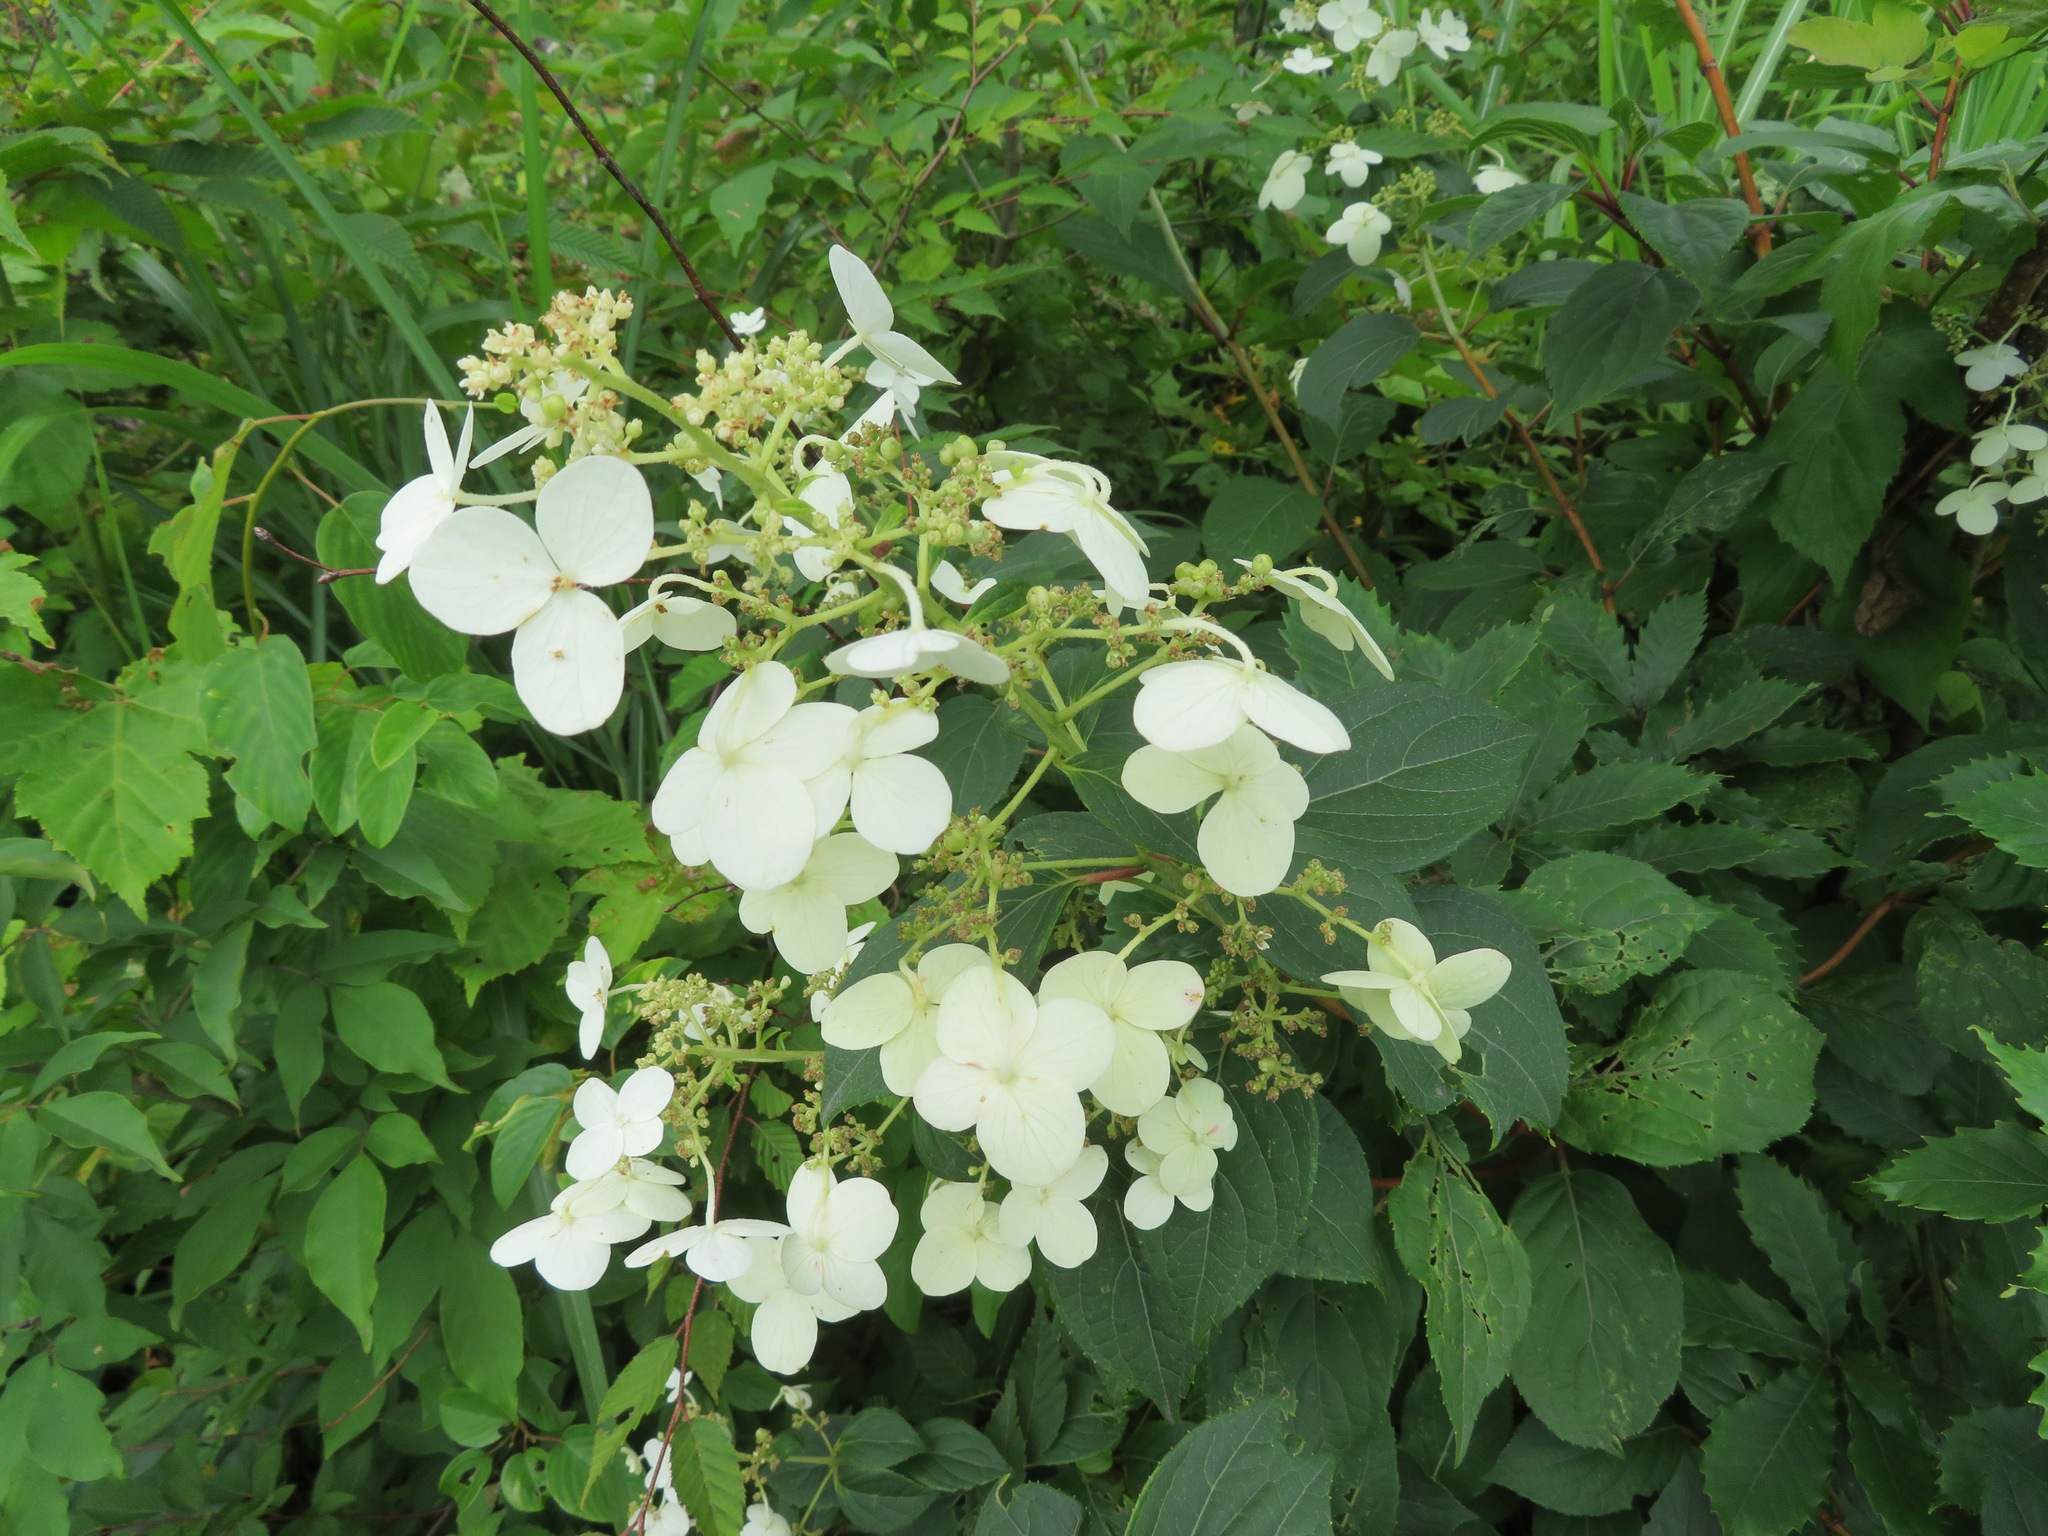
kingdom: Plantae
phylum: Tracheophyta
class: Magnoliopsida
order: Cornales
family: Hydrangeaceae
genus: Hydrangea
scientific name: Hydrangea paniculata
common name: Panicled hydrangea
